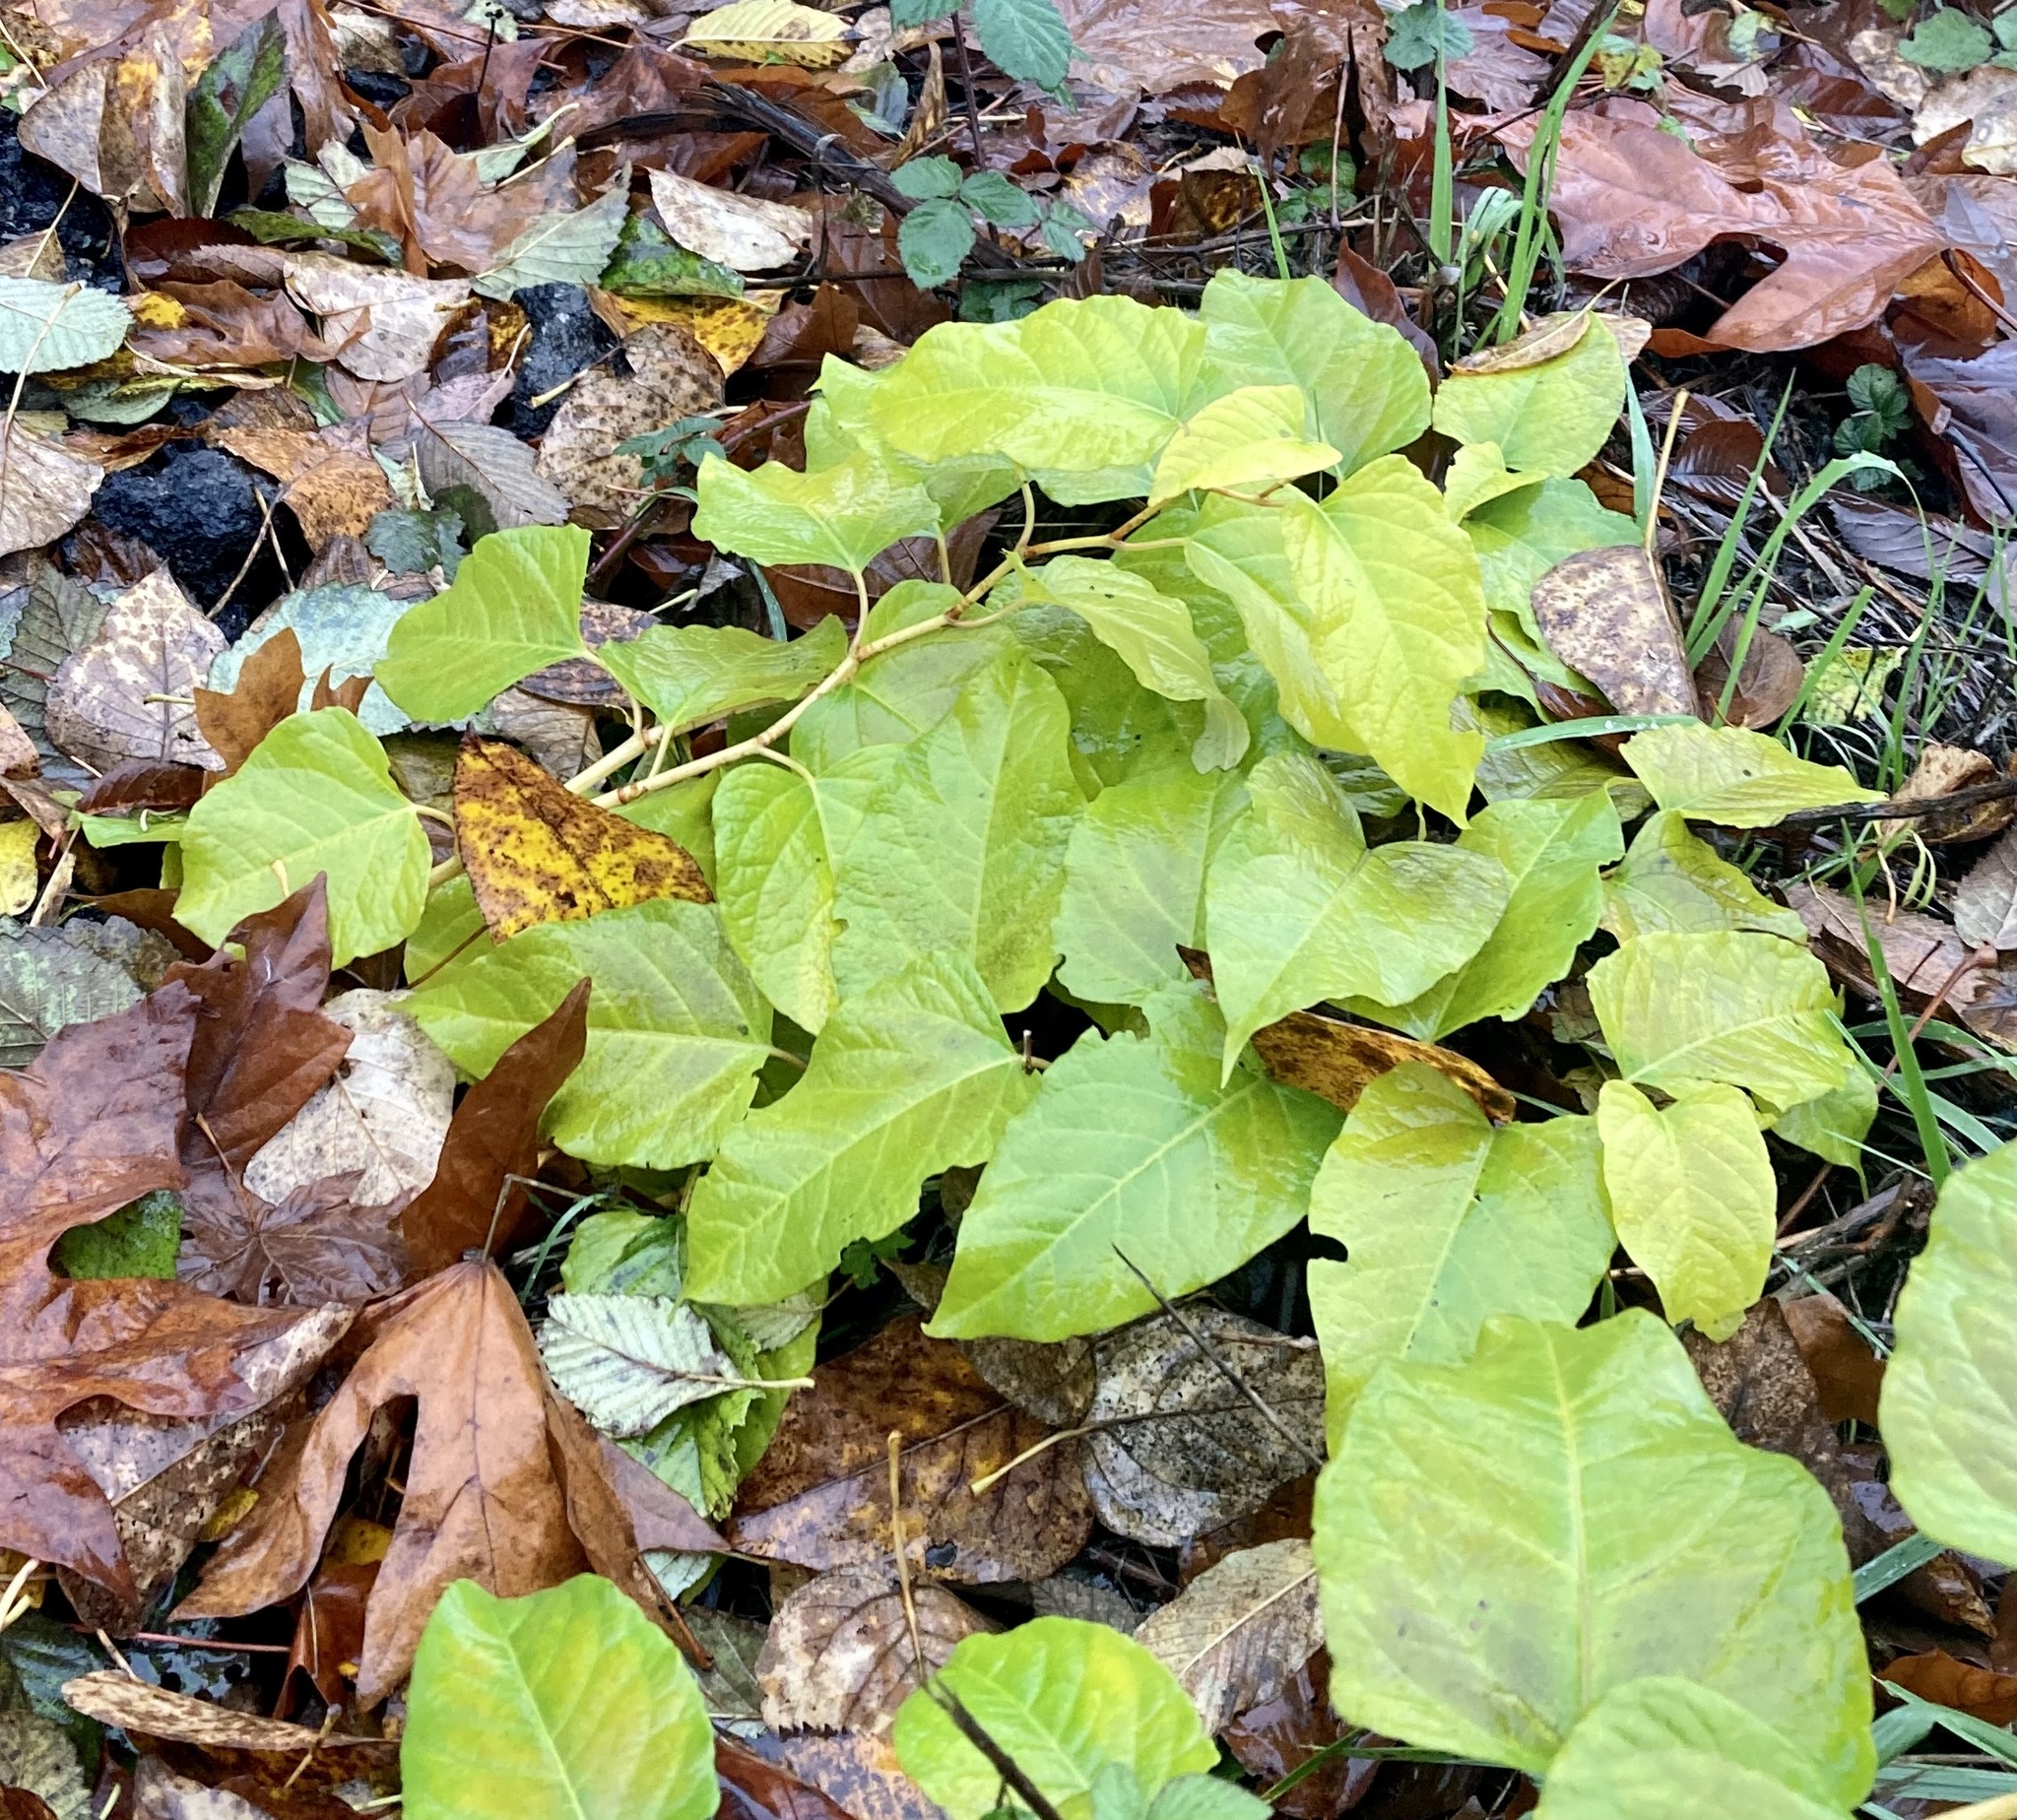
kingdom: Plantae
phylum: Tracheophyta
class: Magnoliopsida
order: Caryophyllales
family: Polygonaceae
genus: Reynoutria
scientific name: Reynoutria bohemica
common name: Bohemian knotweed
